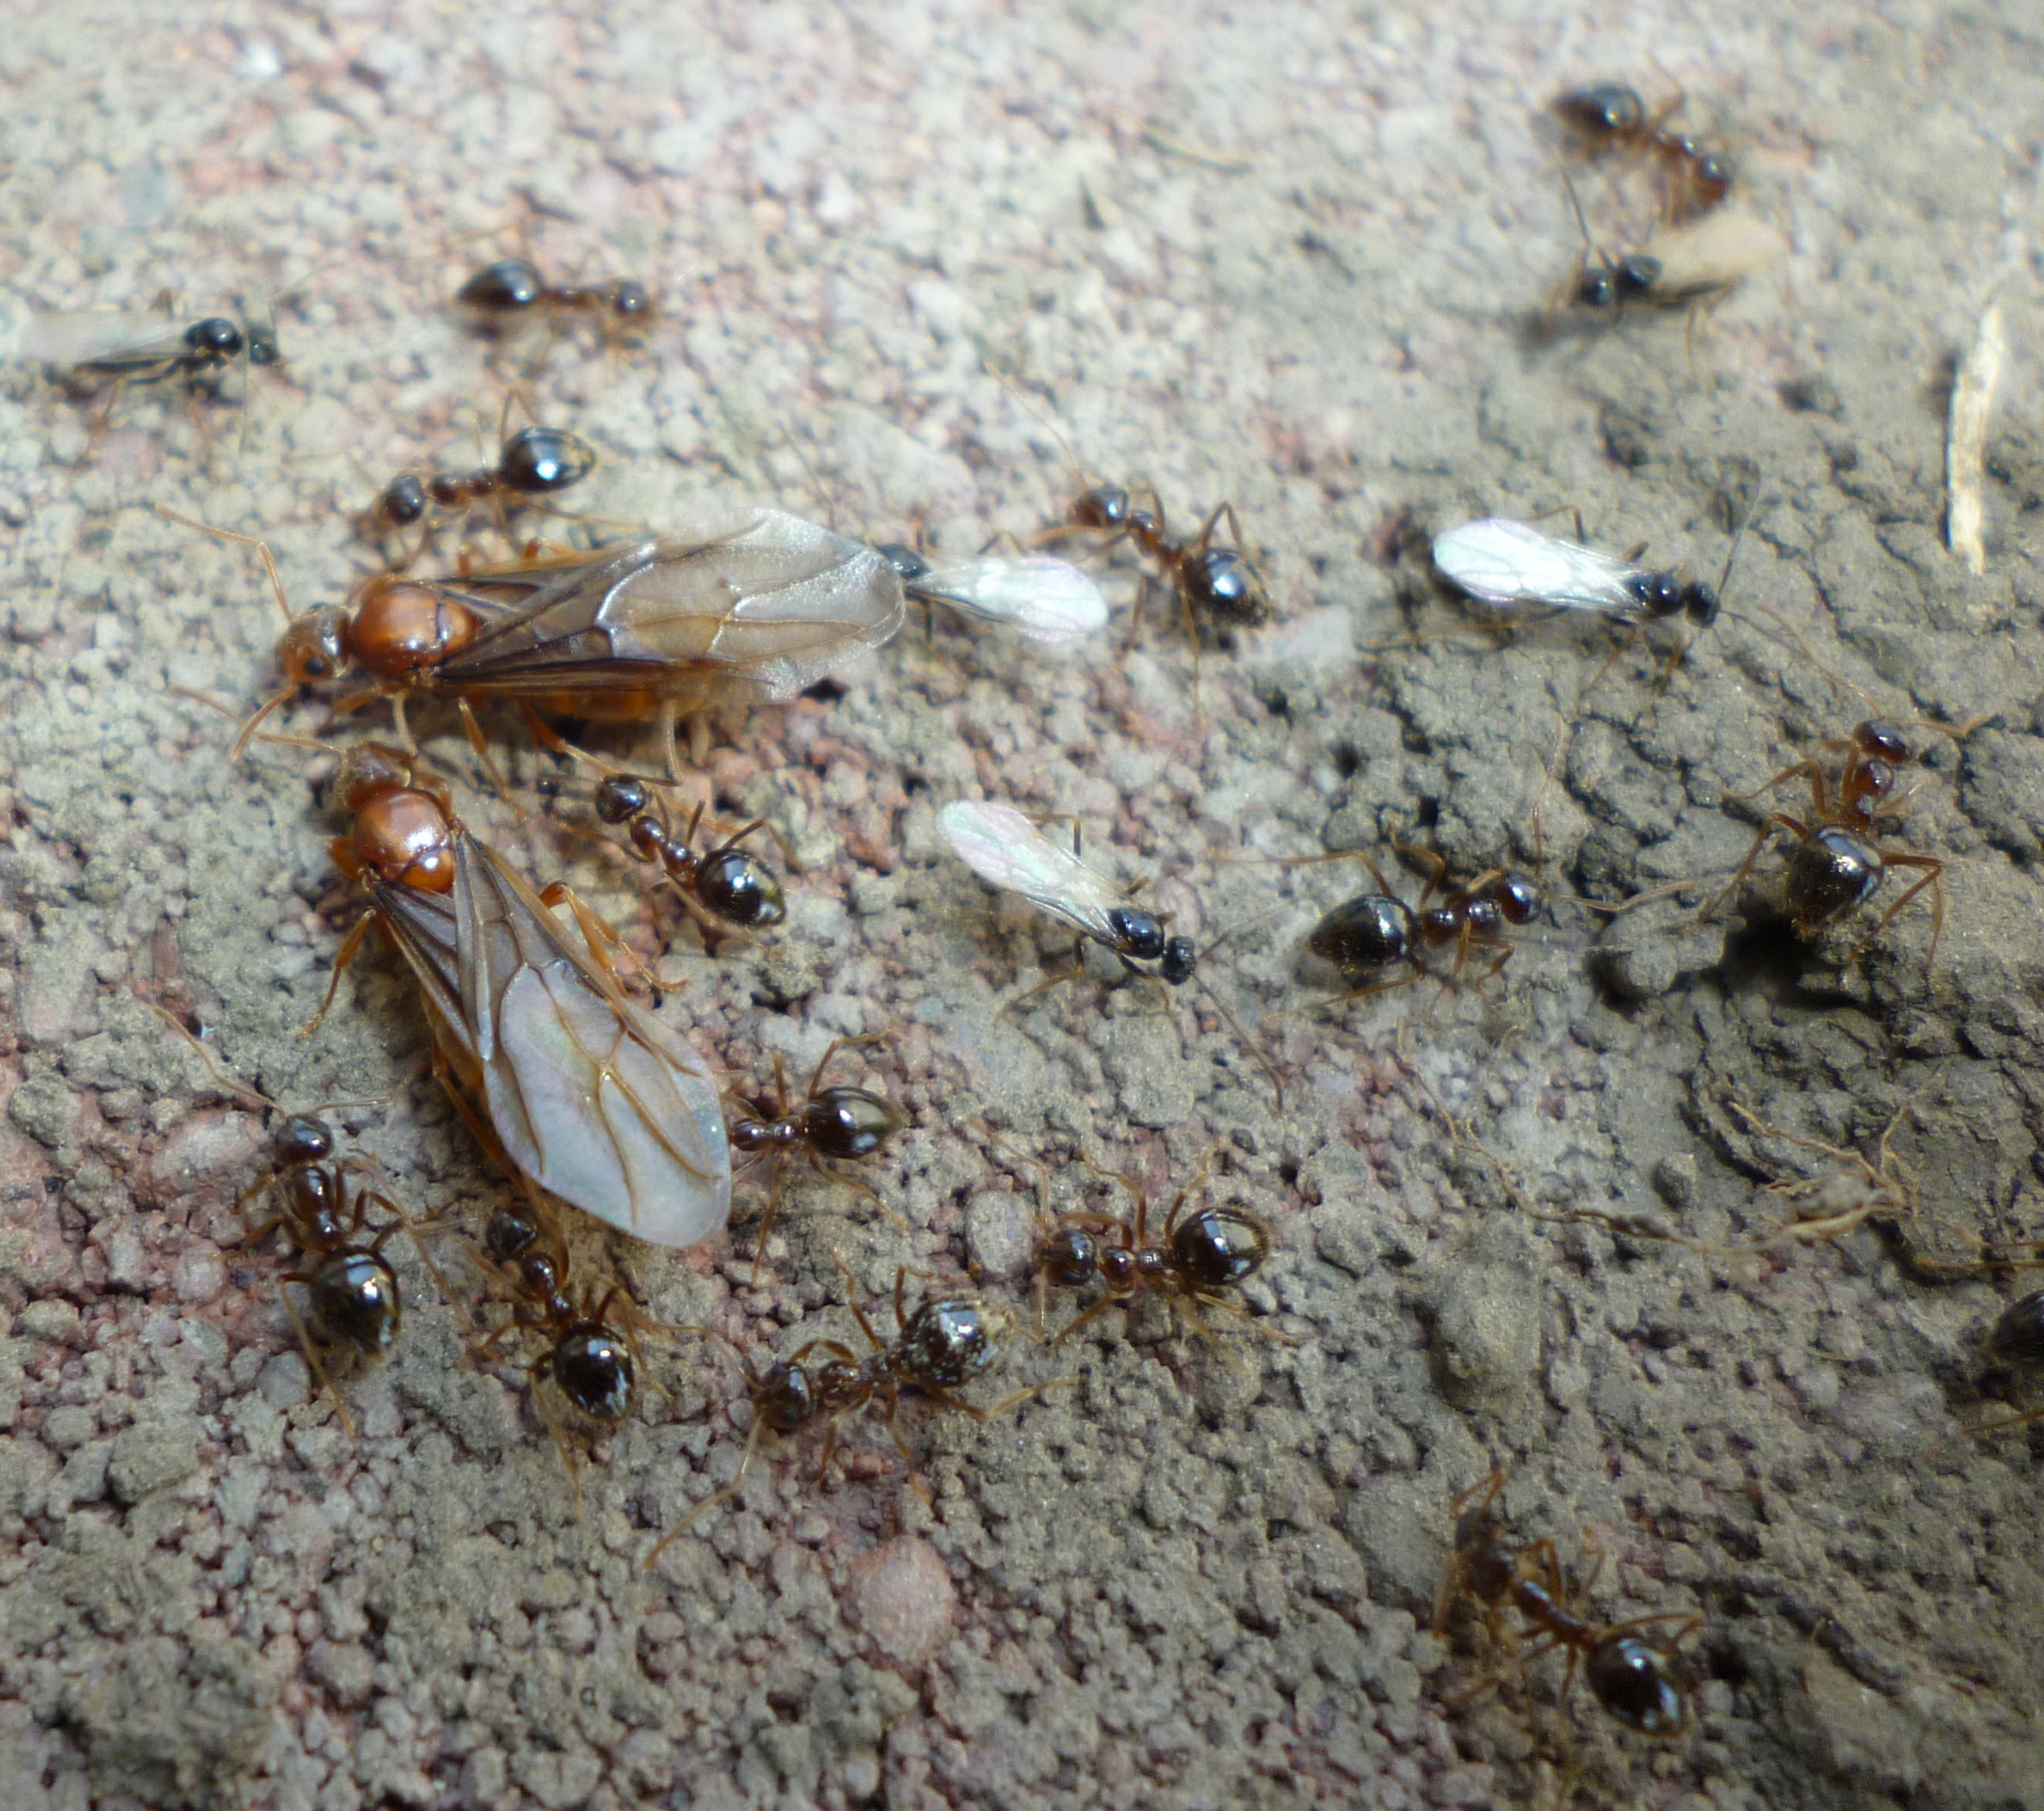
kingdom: Animalia
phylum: Arthropoda
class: Insecta
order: Hymenoptera
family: Formicidae
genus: Prenolepis
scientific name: Prenolepis imparis
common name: Small honey ant
